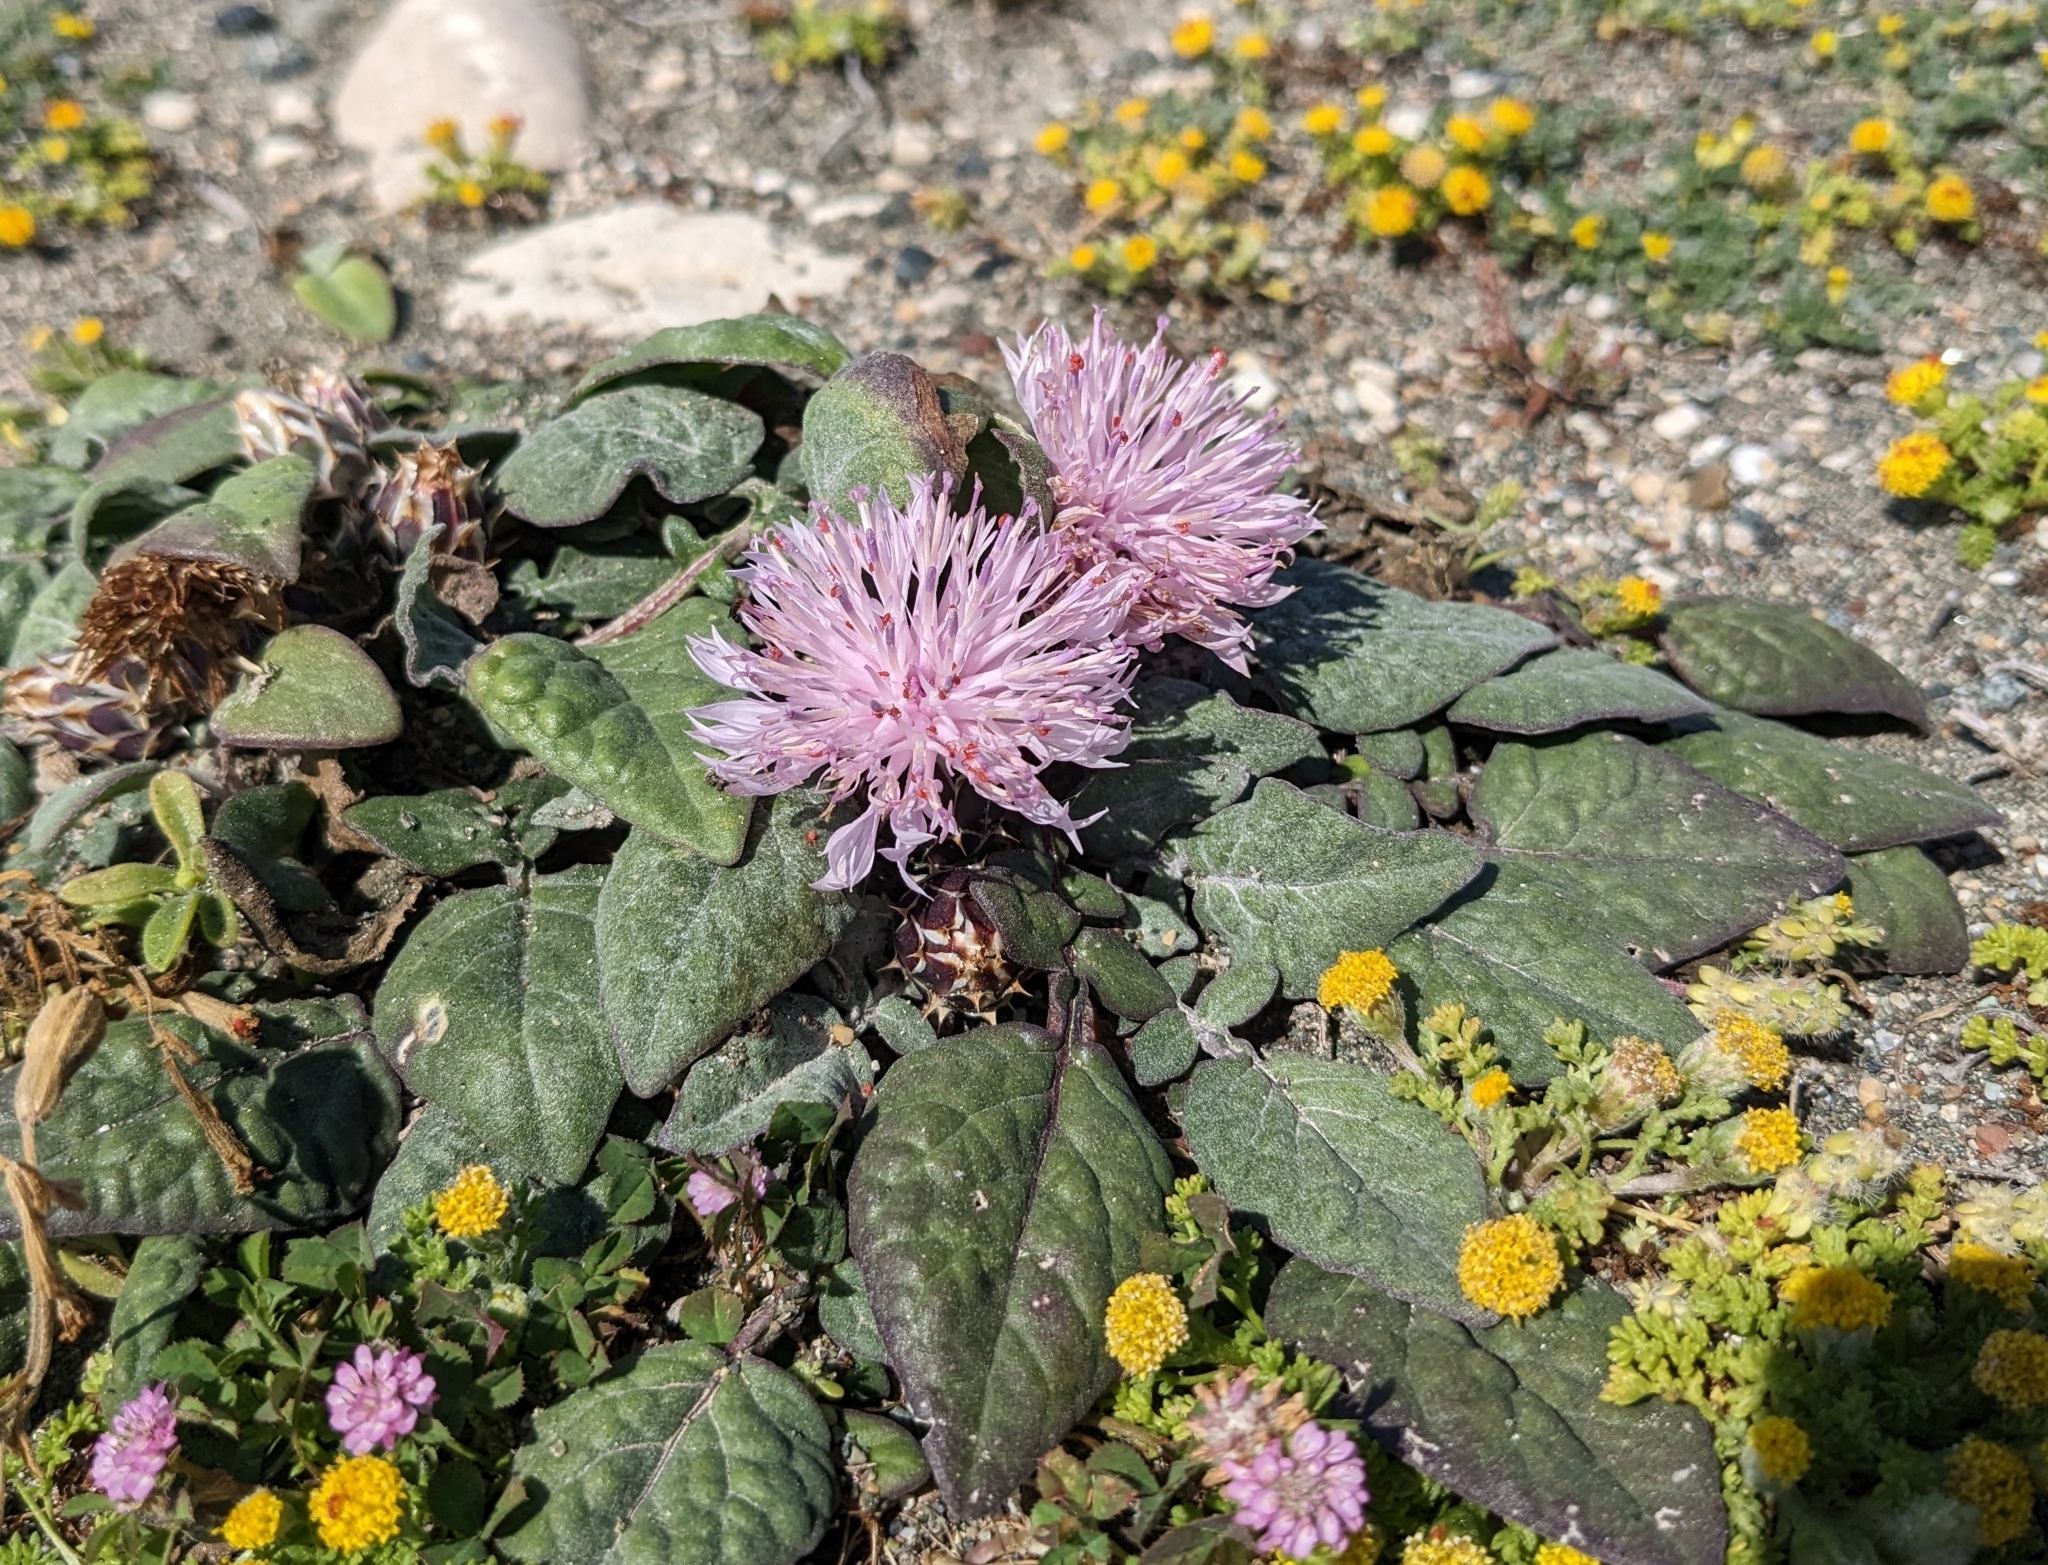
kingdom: Plantae
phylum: Tracheophyta
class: Magnoliopsida
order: Asterales
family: Asteraceae
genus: Crocodilium
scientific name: Crocodilium creticum
